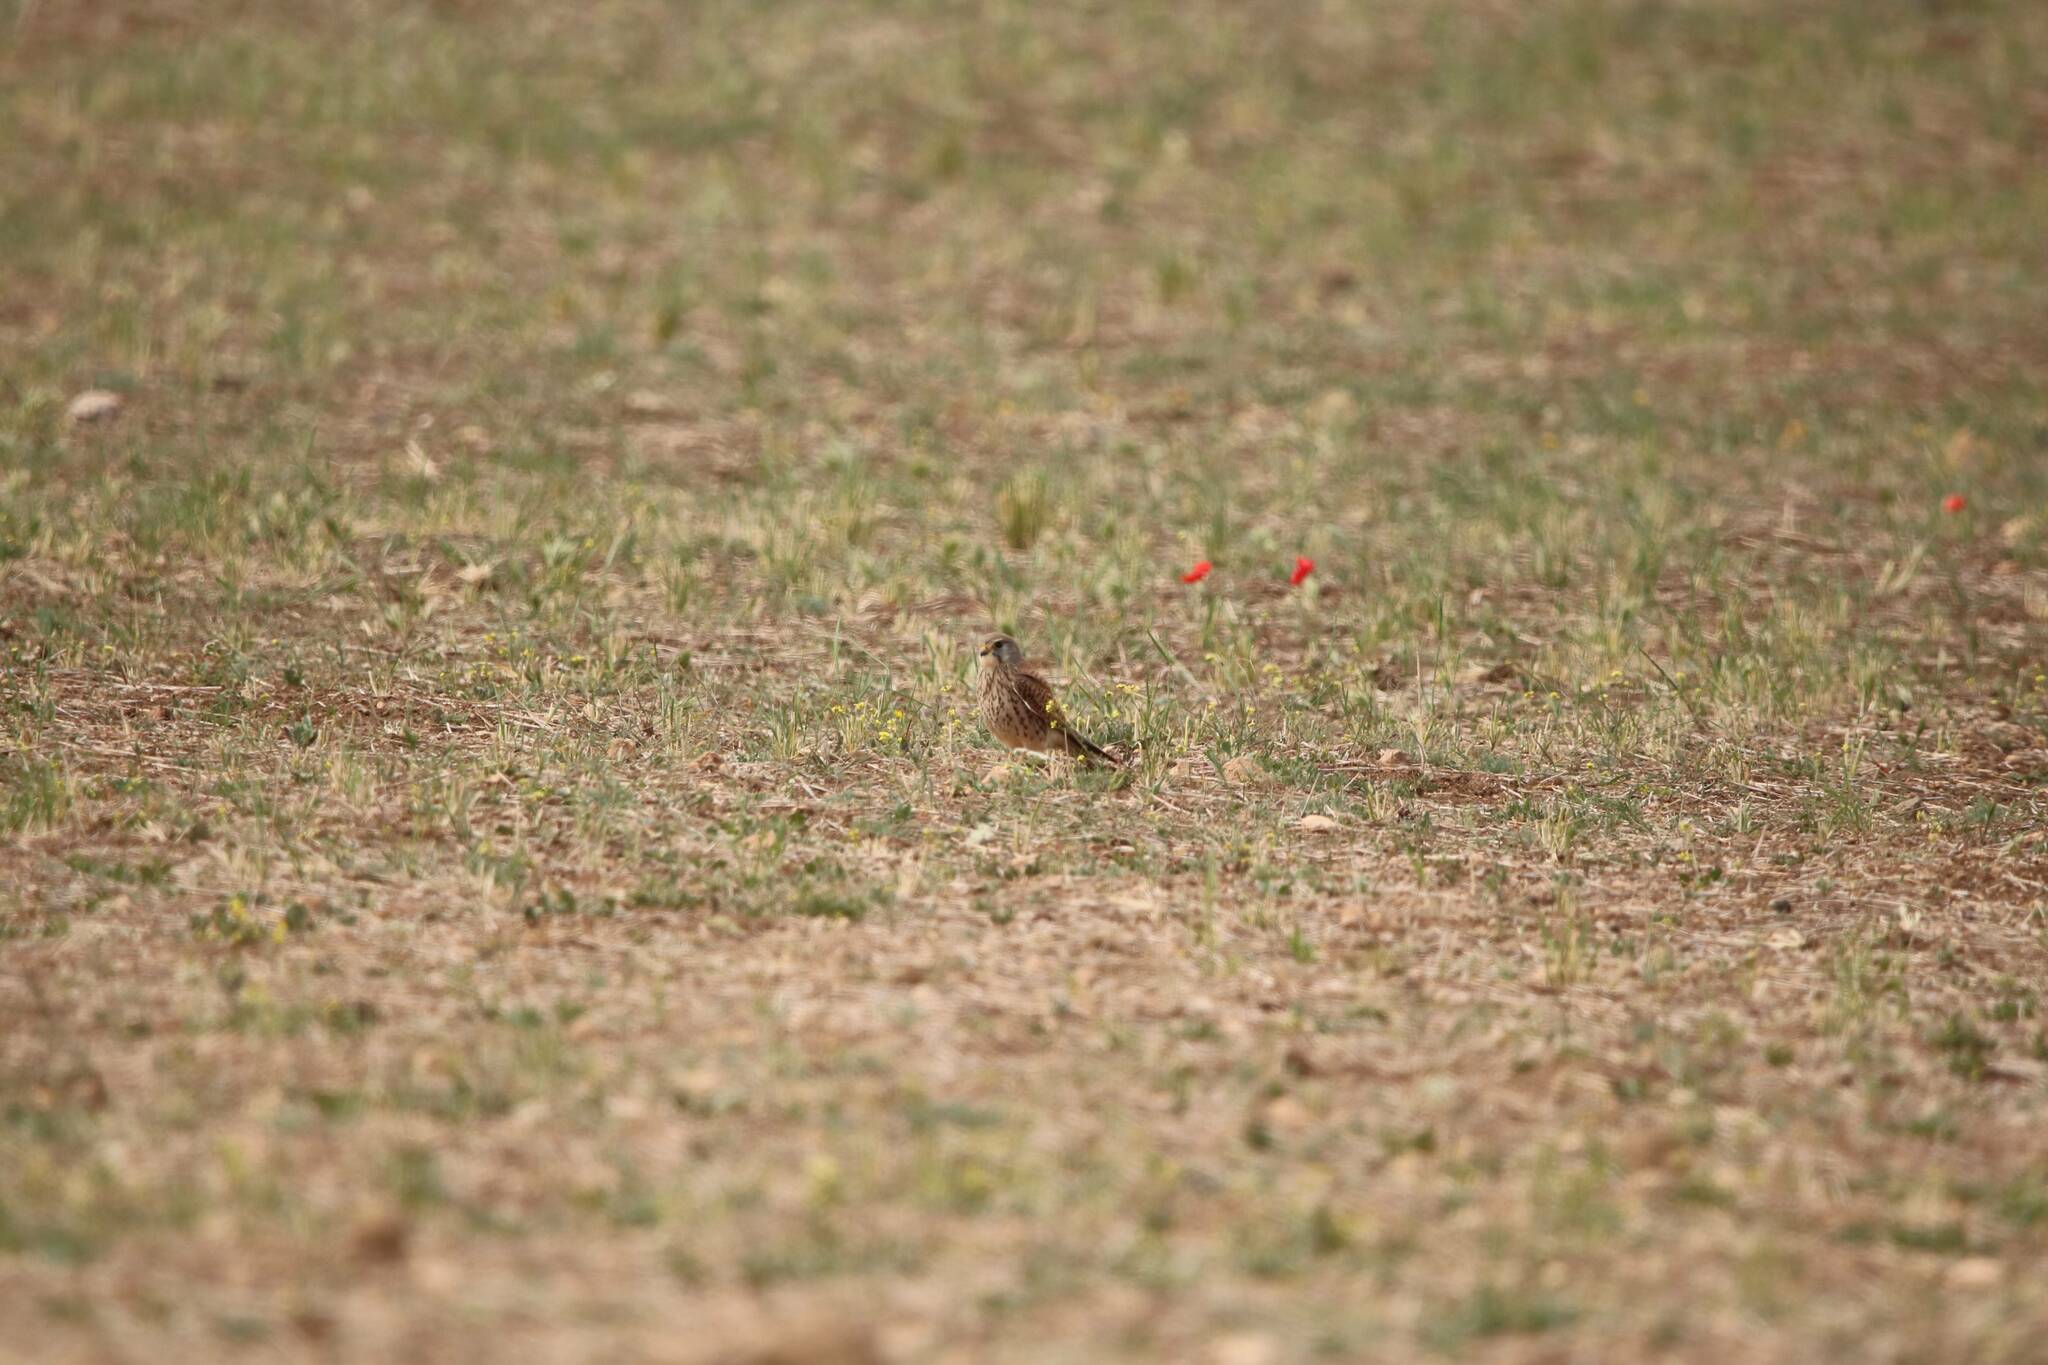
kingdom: Animalia
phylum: Chordata
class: Aves
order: Falconiformes
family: Falconidae
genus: Falco
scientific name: Falco tinnunculus
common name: Common kestrel
